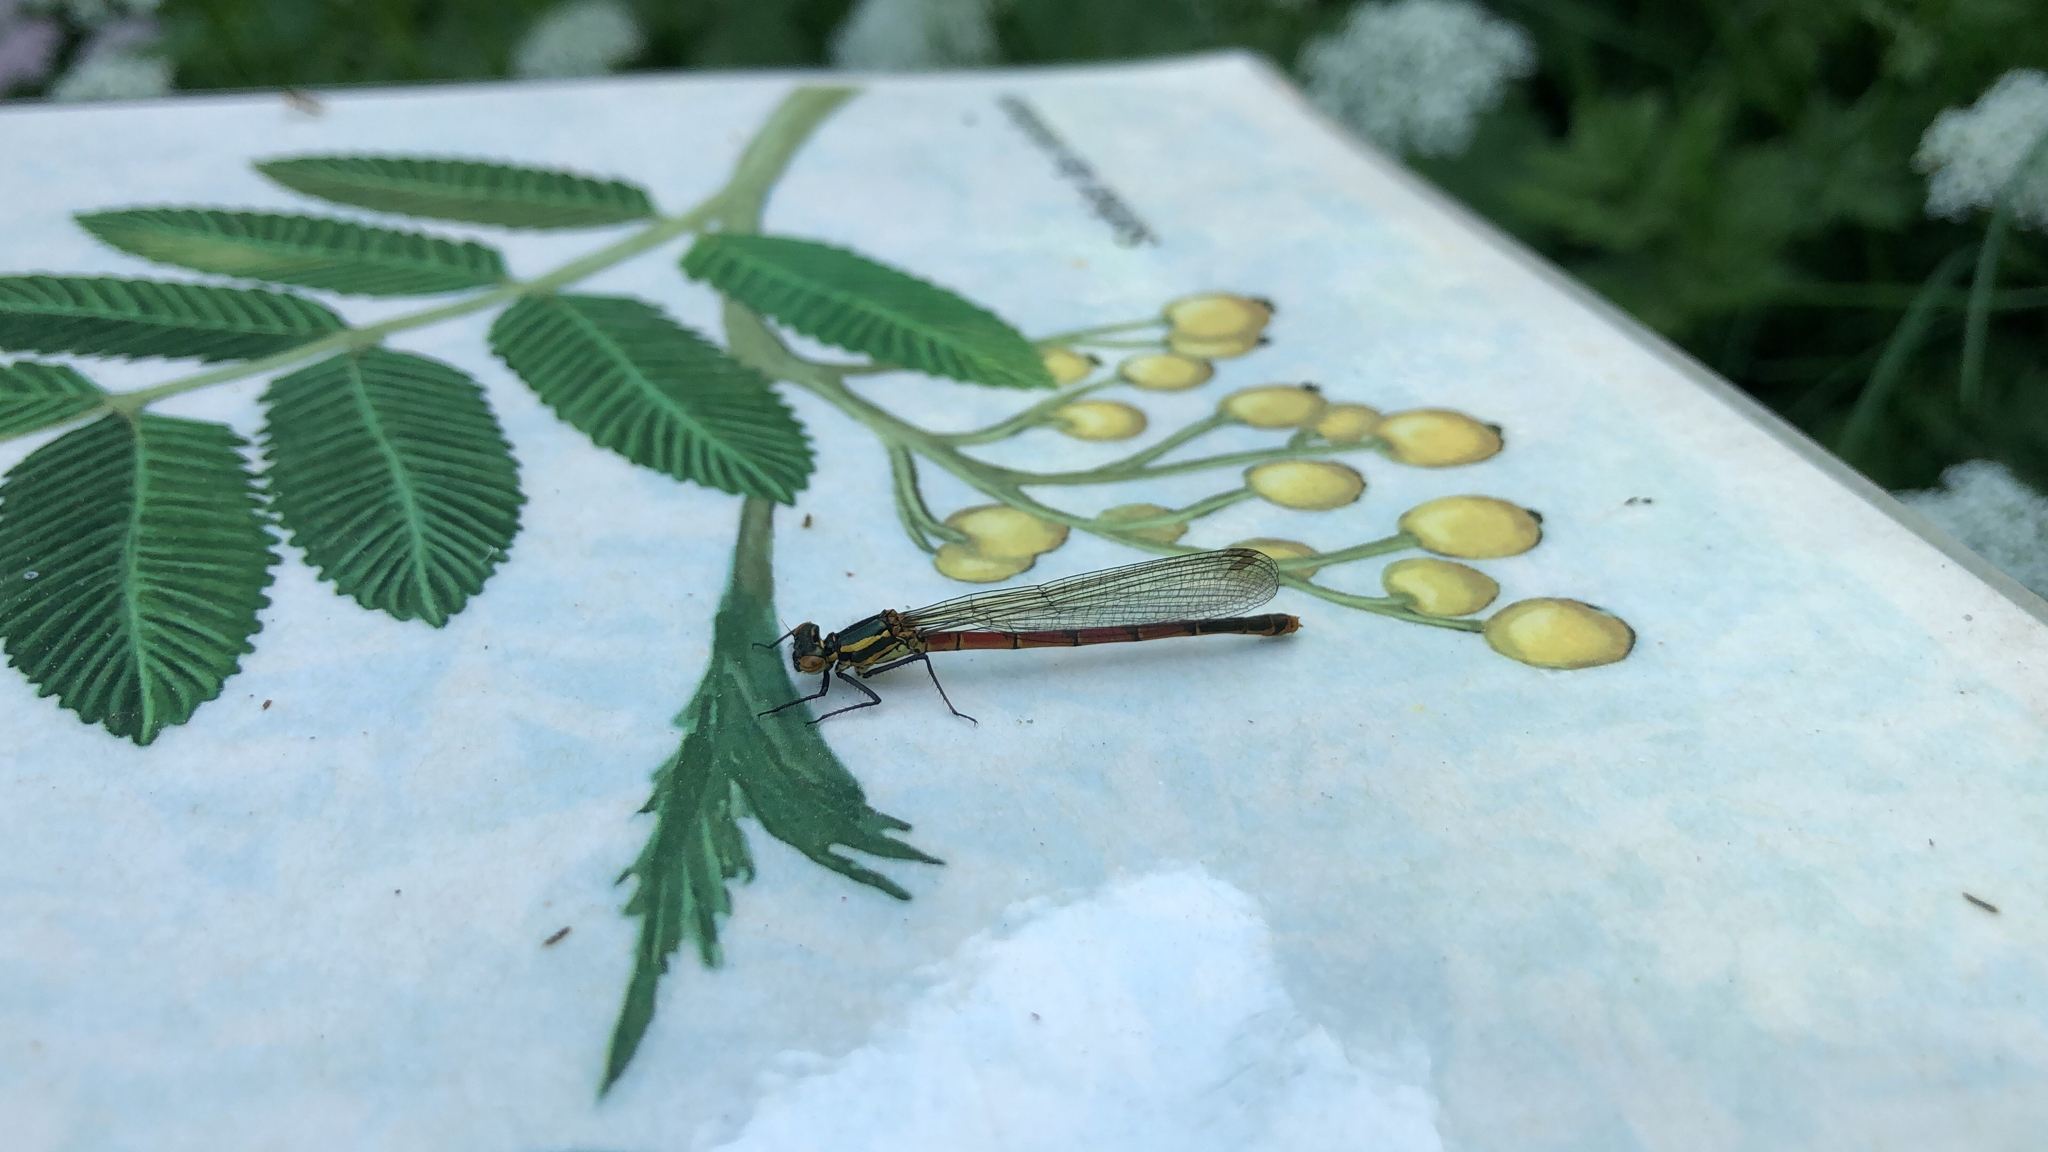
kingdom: Animalia
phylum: Arthropoda
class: Insecta
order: Odonata
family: Coenagrionidae
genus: Pyrrhosoma
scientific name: Pyrrhosoma nymphula
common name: Large red damsel
